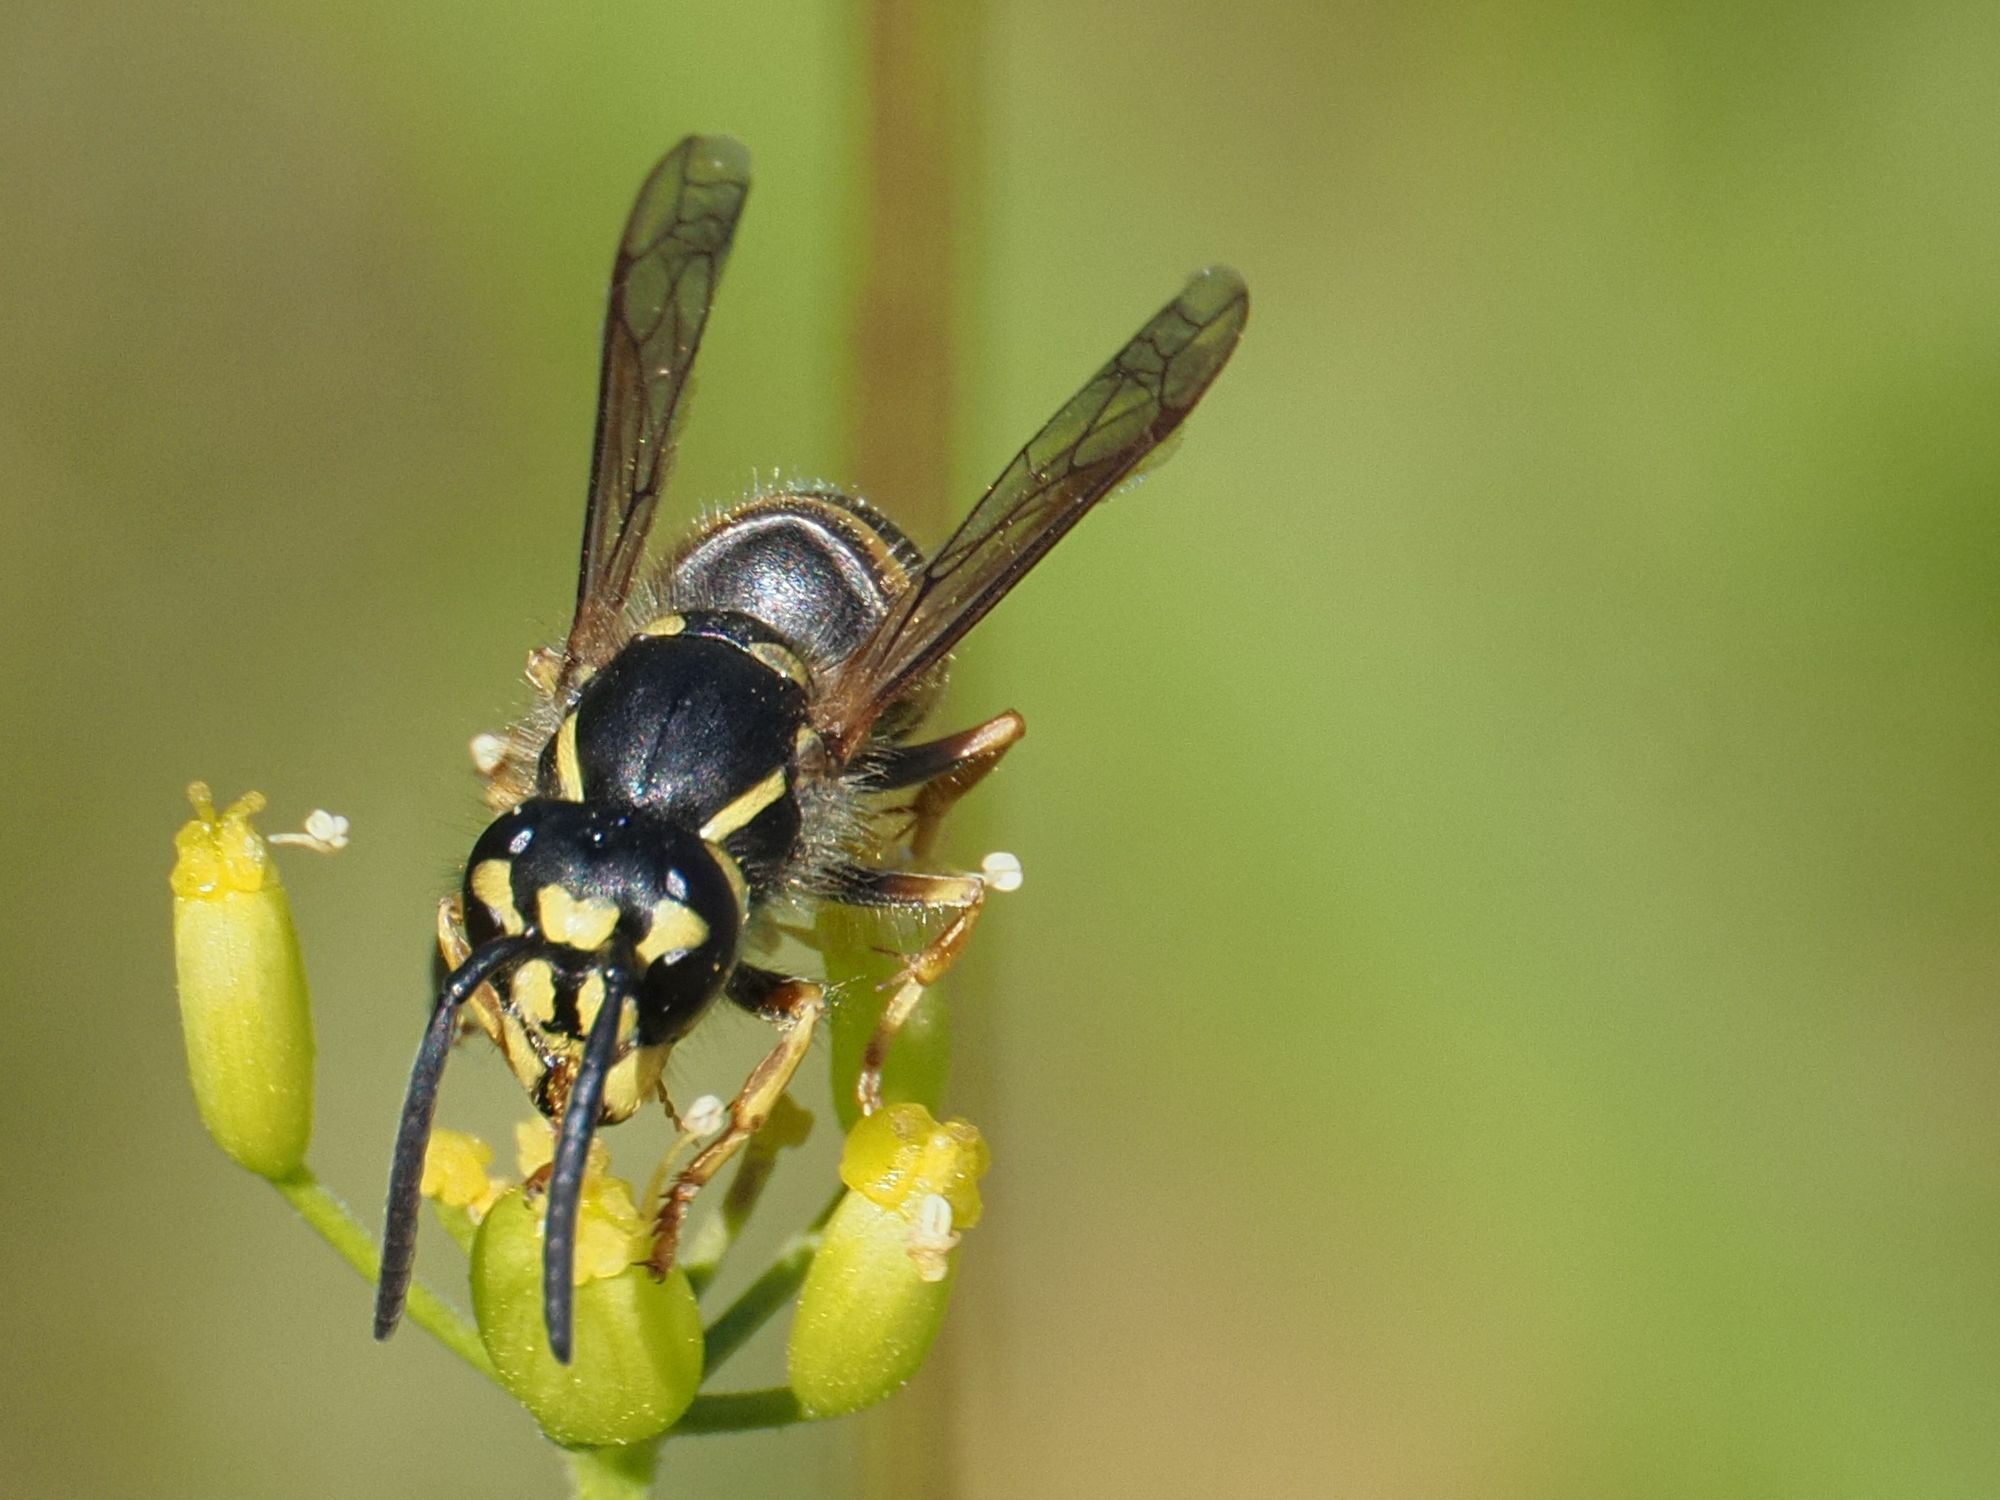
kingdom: Animalia
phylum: Arthropoda
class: Insecta
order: Hymenoptera
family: Vespidae
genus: Vespula
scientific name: Vespula vulgaris
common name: Common wasp
